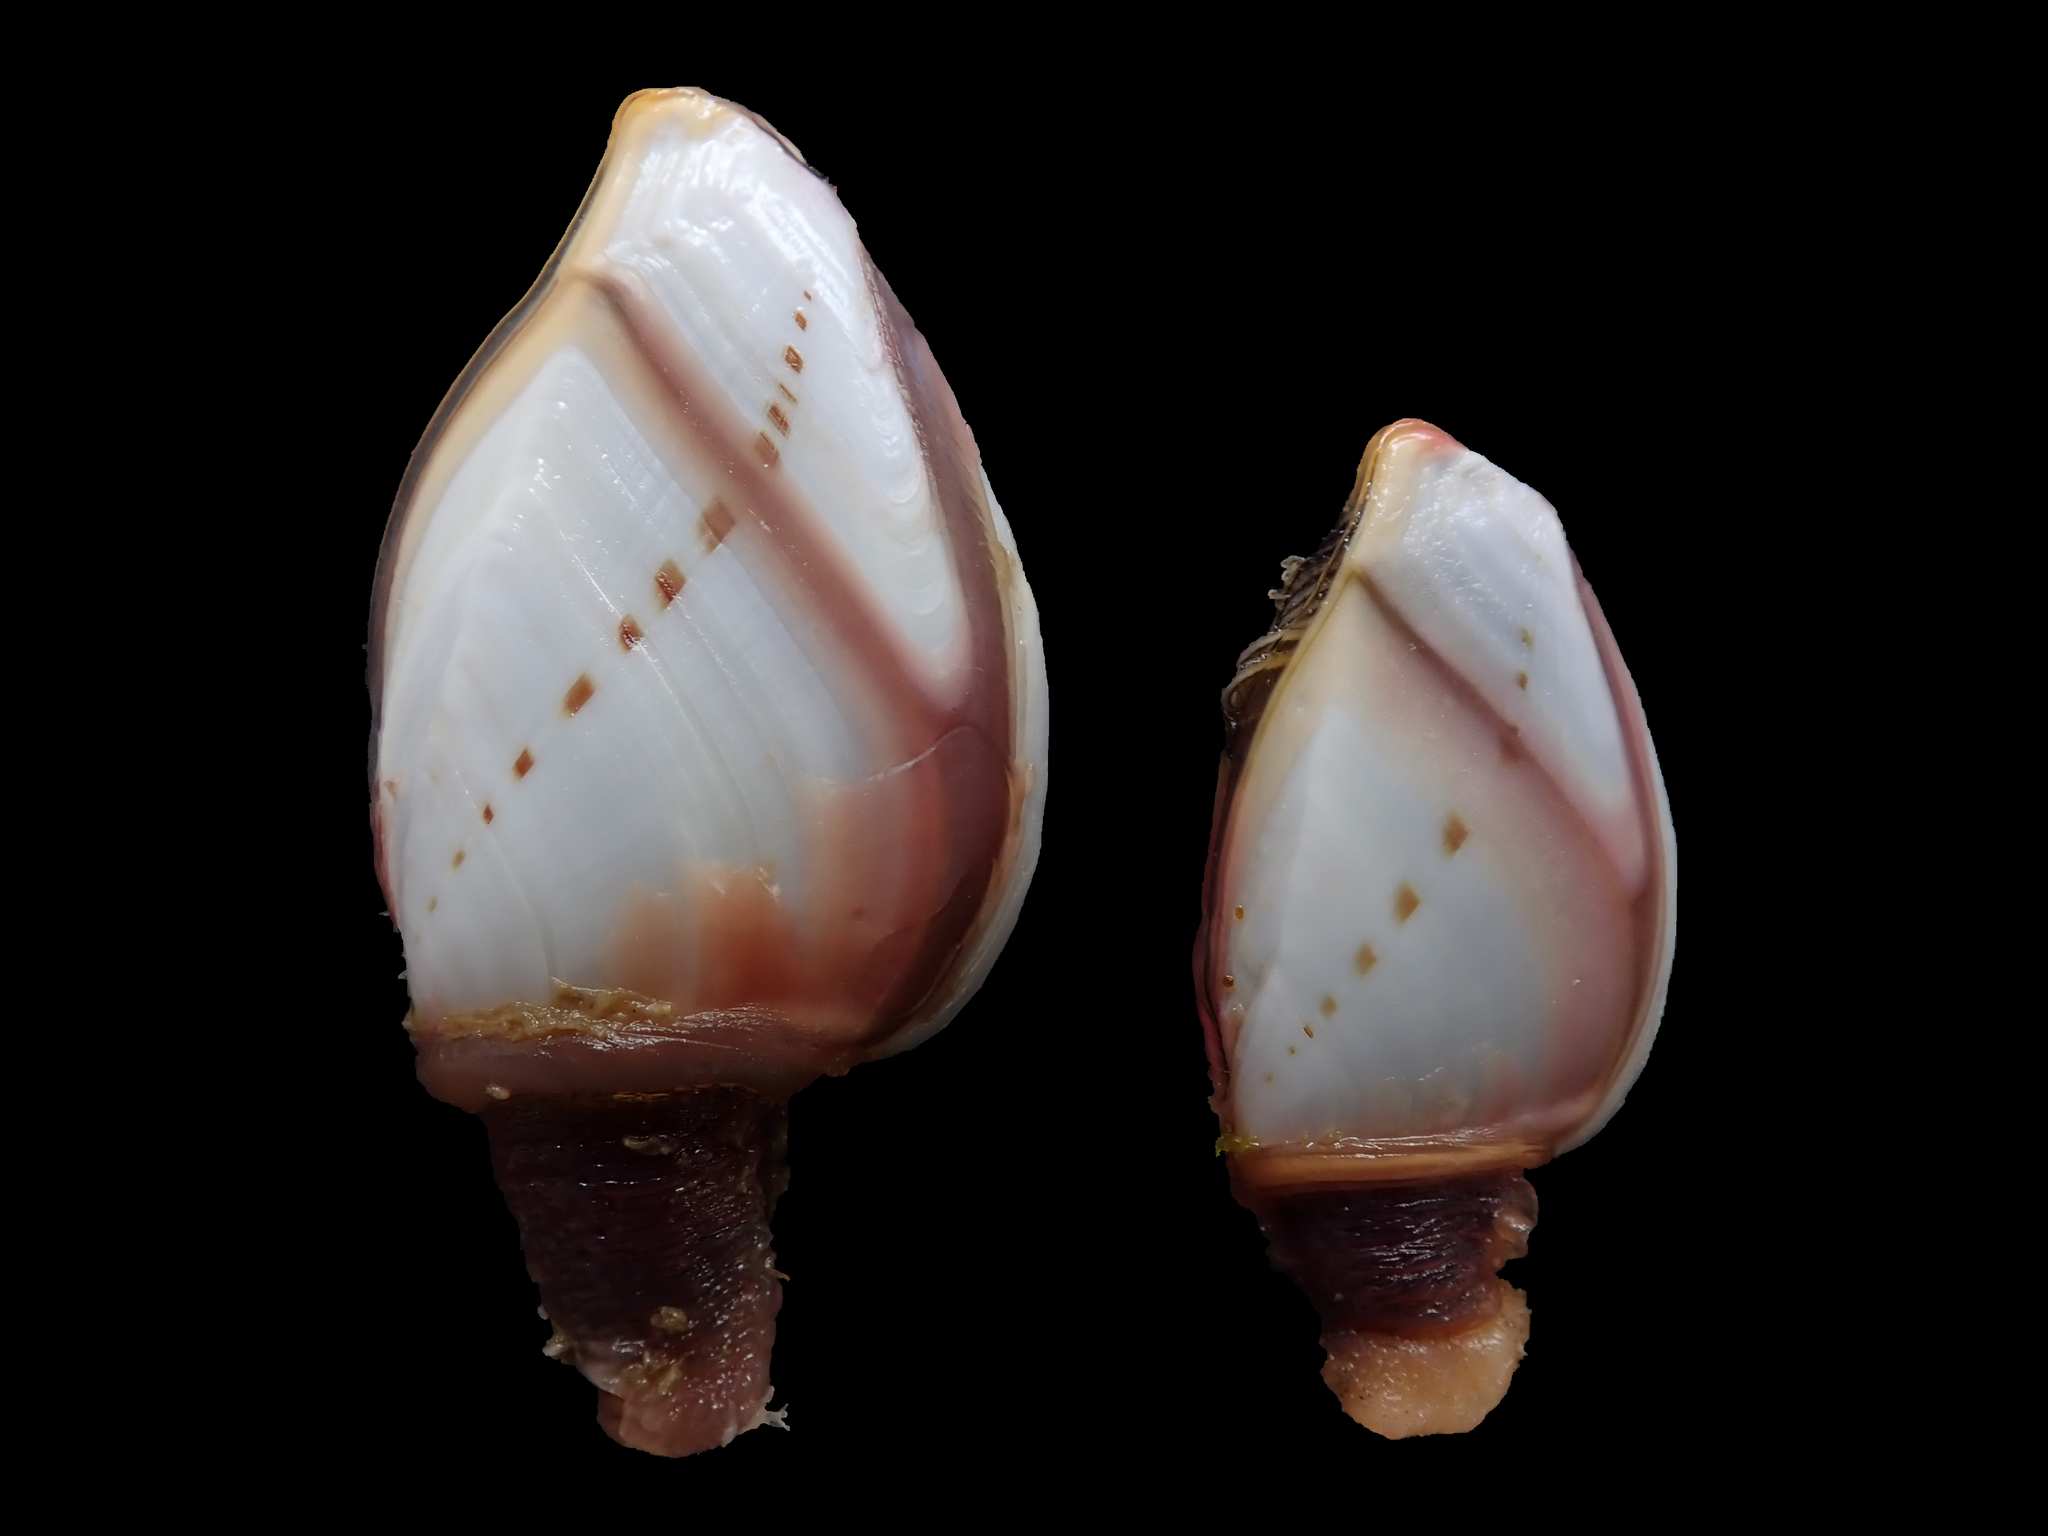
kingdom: Animalia
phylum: Arthropoda
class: Maxillopoda
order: Pedunculata
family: Lepadidae
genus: Lepas
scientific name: Lepas indica
